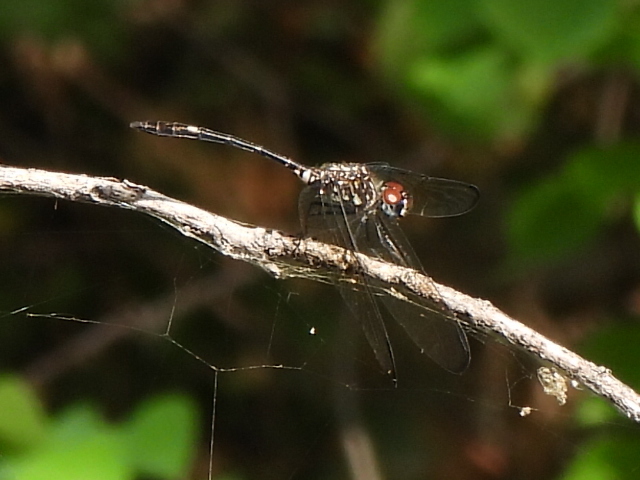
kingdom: Animalia
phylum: Arthropoda
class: Insecta
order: Odonata
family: Libellulidae
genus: Dythemis
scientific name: Dythemis velox
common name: Swift setwing
